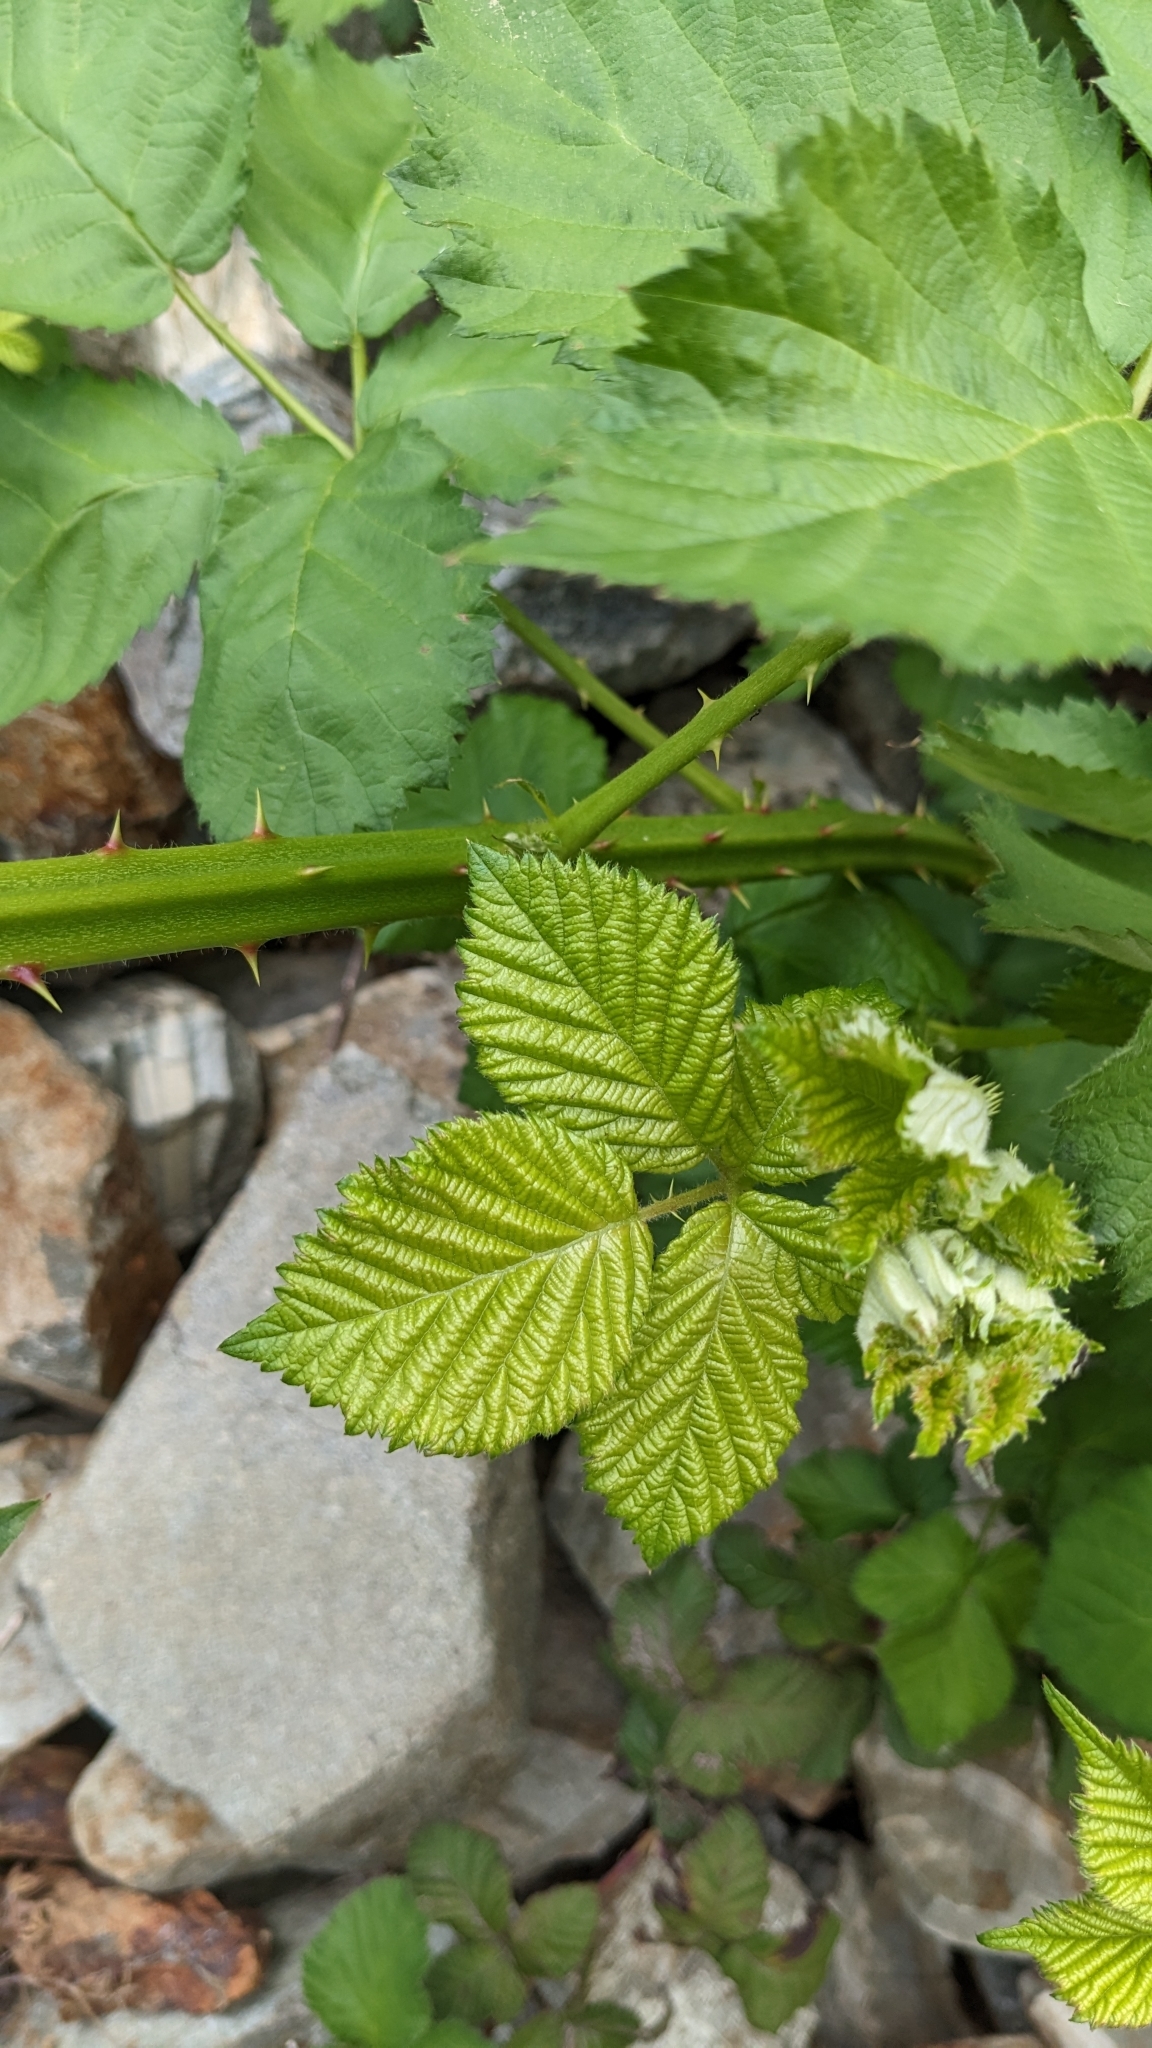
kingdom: Plantae
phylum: Tracheophyta
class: Magnoliopsida
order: Rosales
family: Rosaceae
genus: Rubus
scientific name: Rubus bifrons
